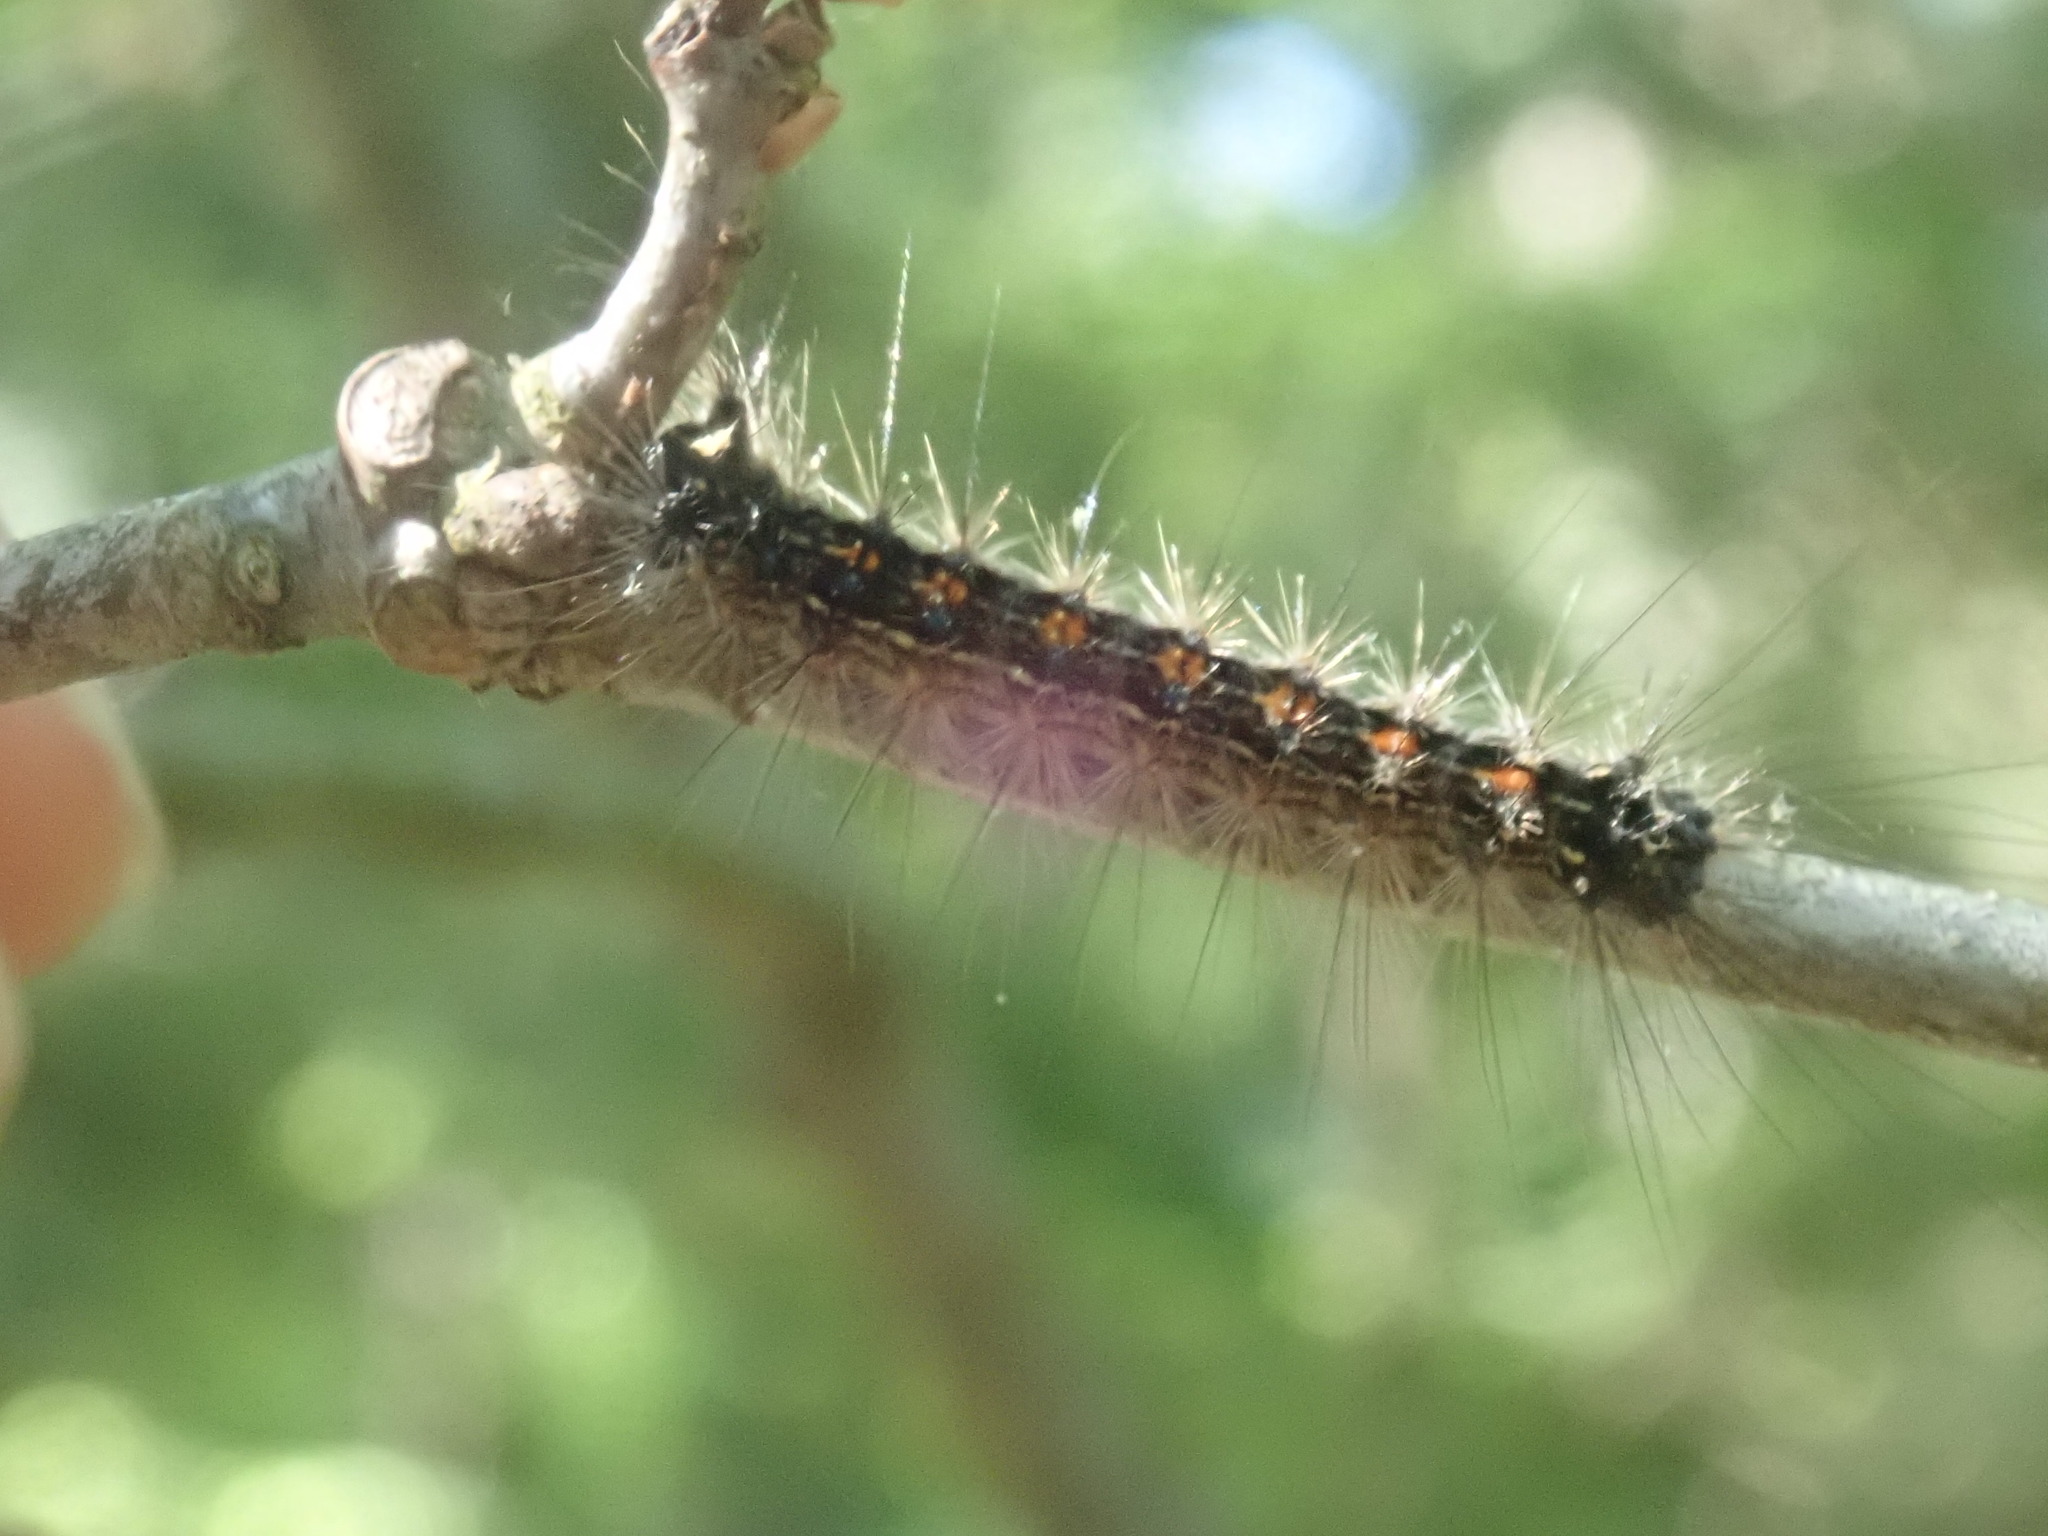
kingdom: Animalia
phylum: Arthropoda
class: Insecta
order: Lepidoptera
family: Erebidae
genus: Lymantria
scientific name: Lymantria dispar
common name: Gypsy moth
